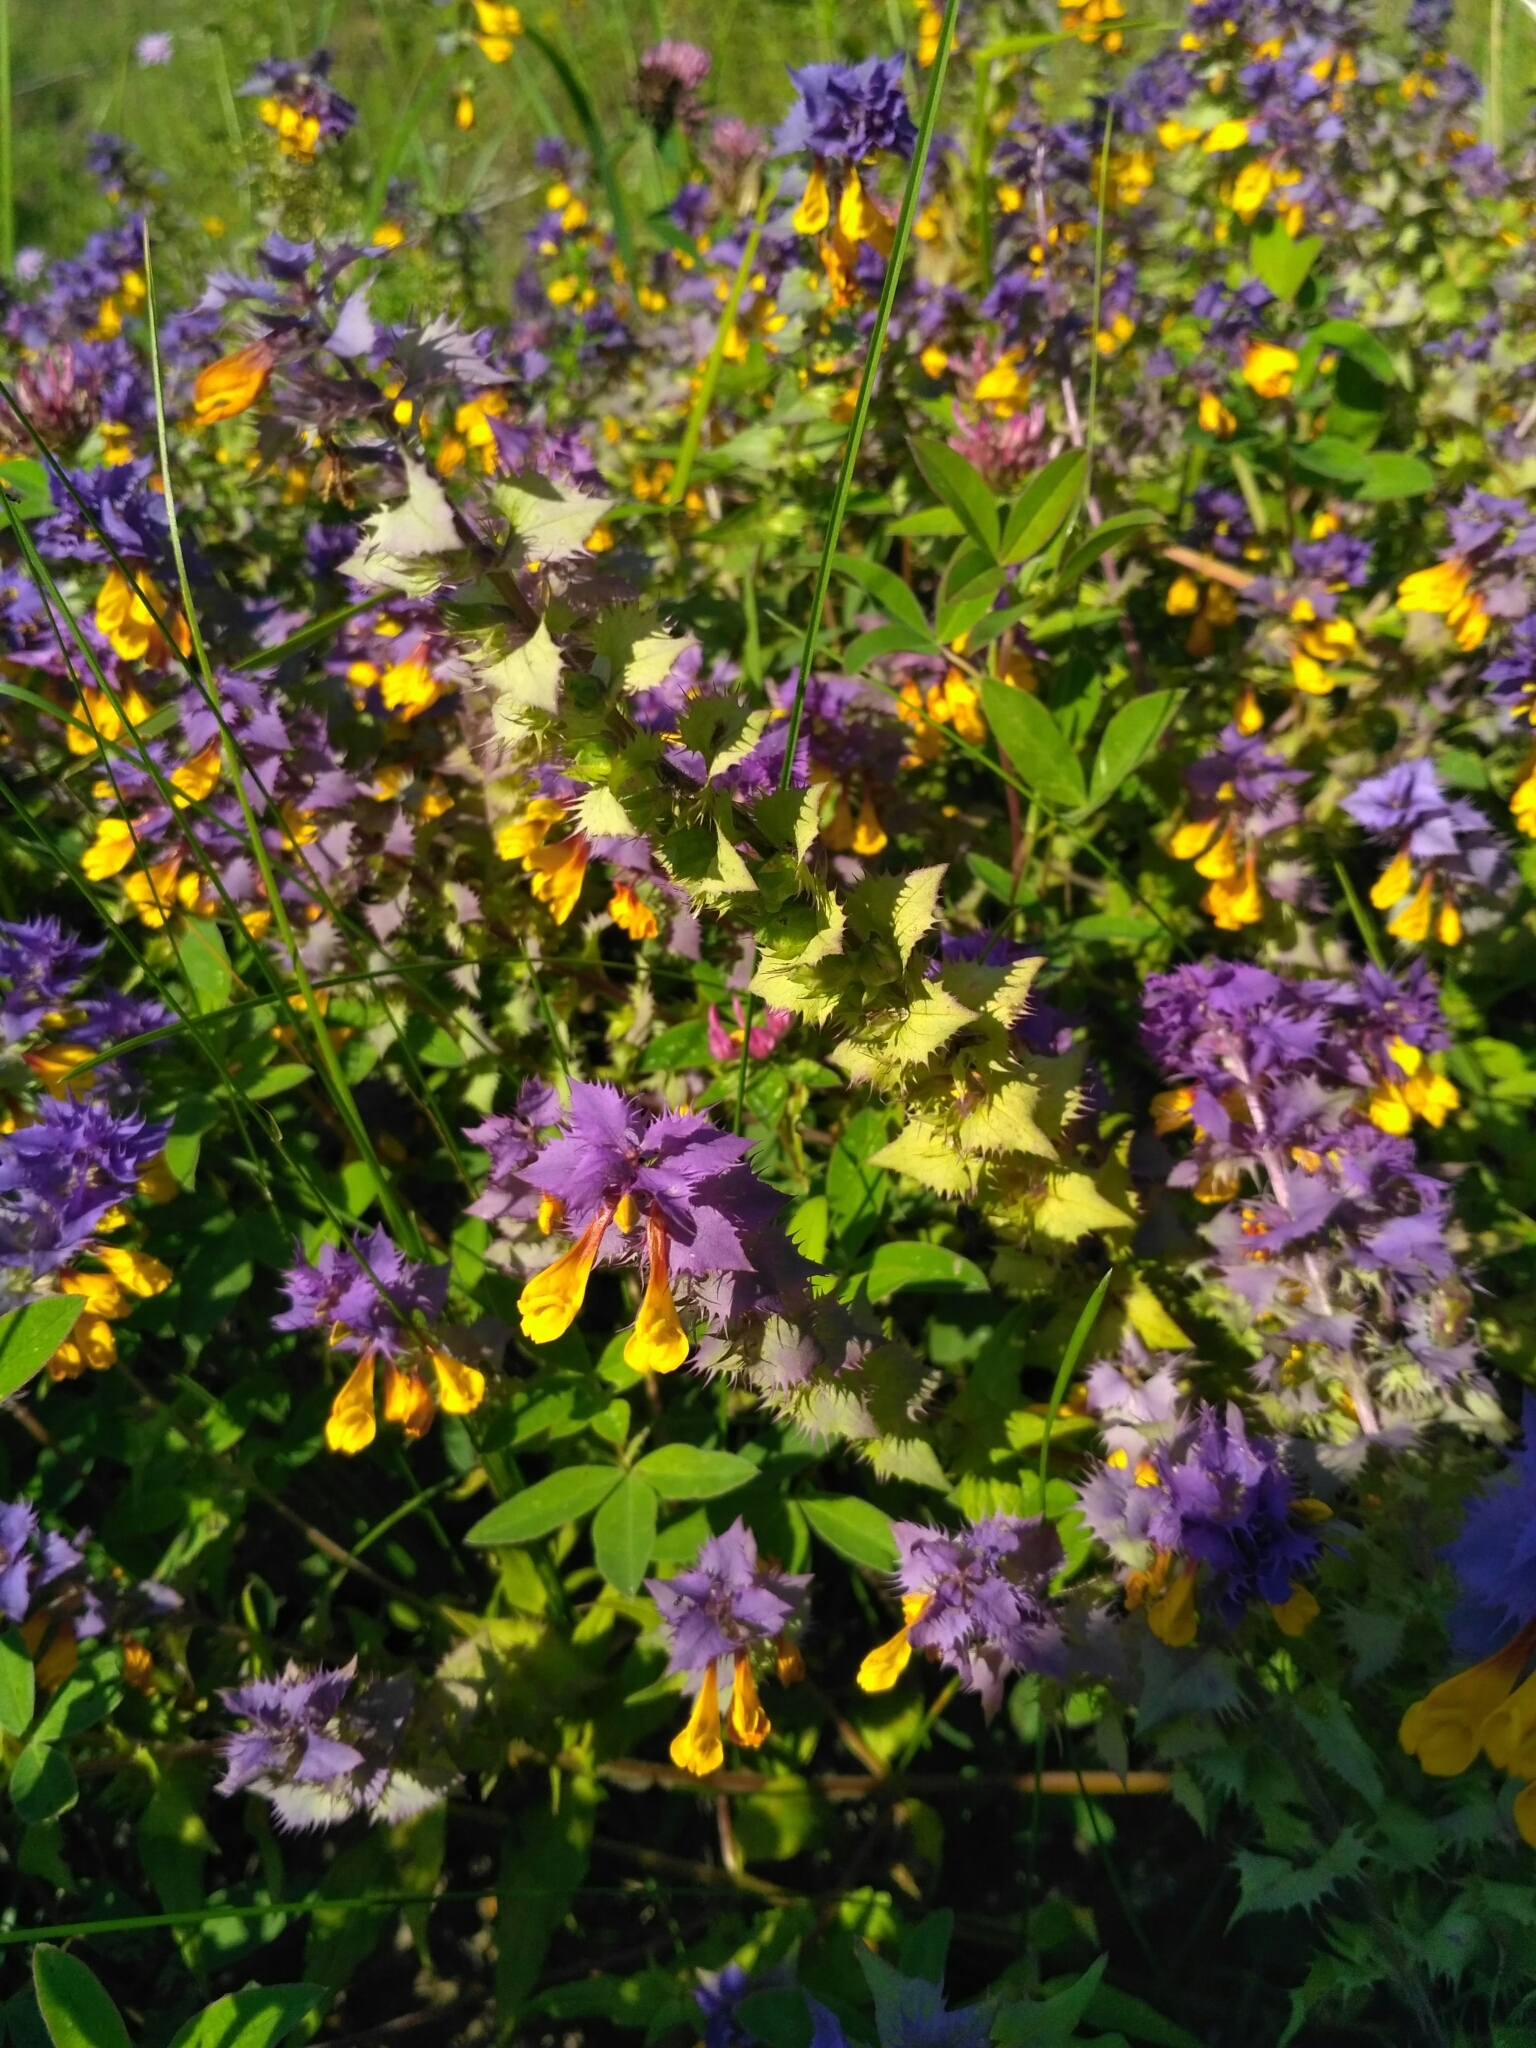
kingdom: Plantae
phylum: Tracheophyta
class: Magnoliopsida
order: Lamiales
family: Orobanchaceae
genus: Melampyrum
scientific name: Melampyrum nemorosum
